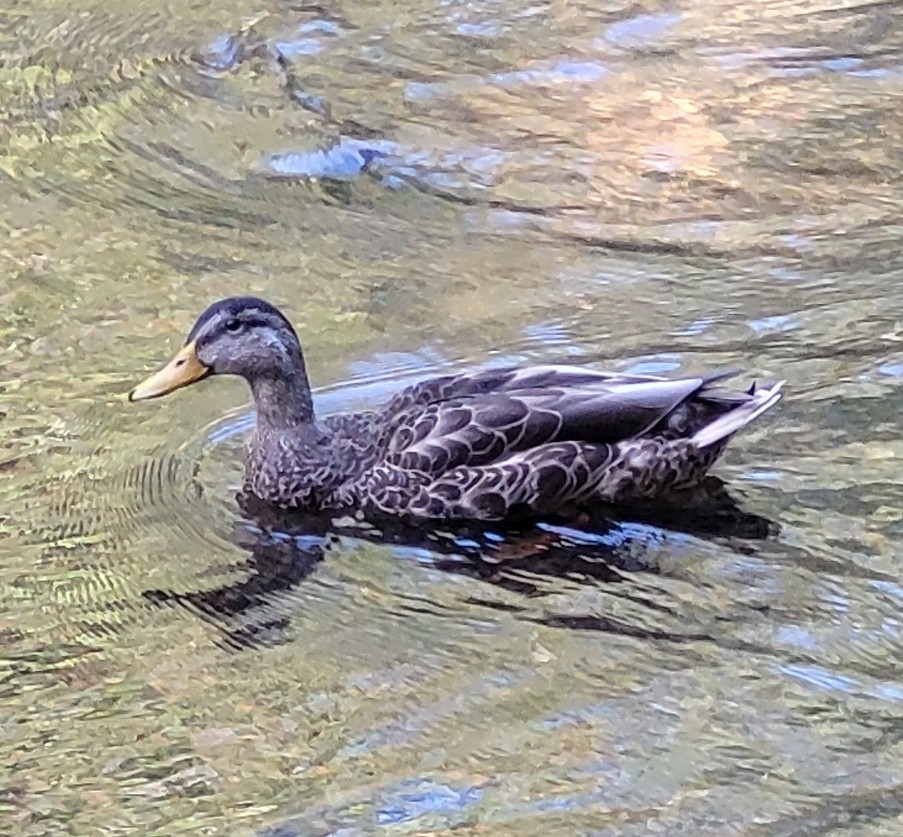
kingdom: Animalia
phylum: Chordata
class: Aves
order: Anseriformes
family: Anatidae
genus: Anas
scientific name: Anas platyrhynchos
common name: Mallard
